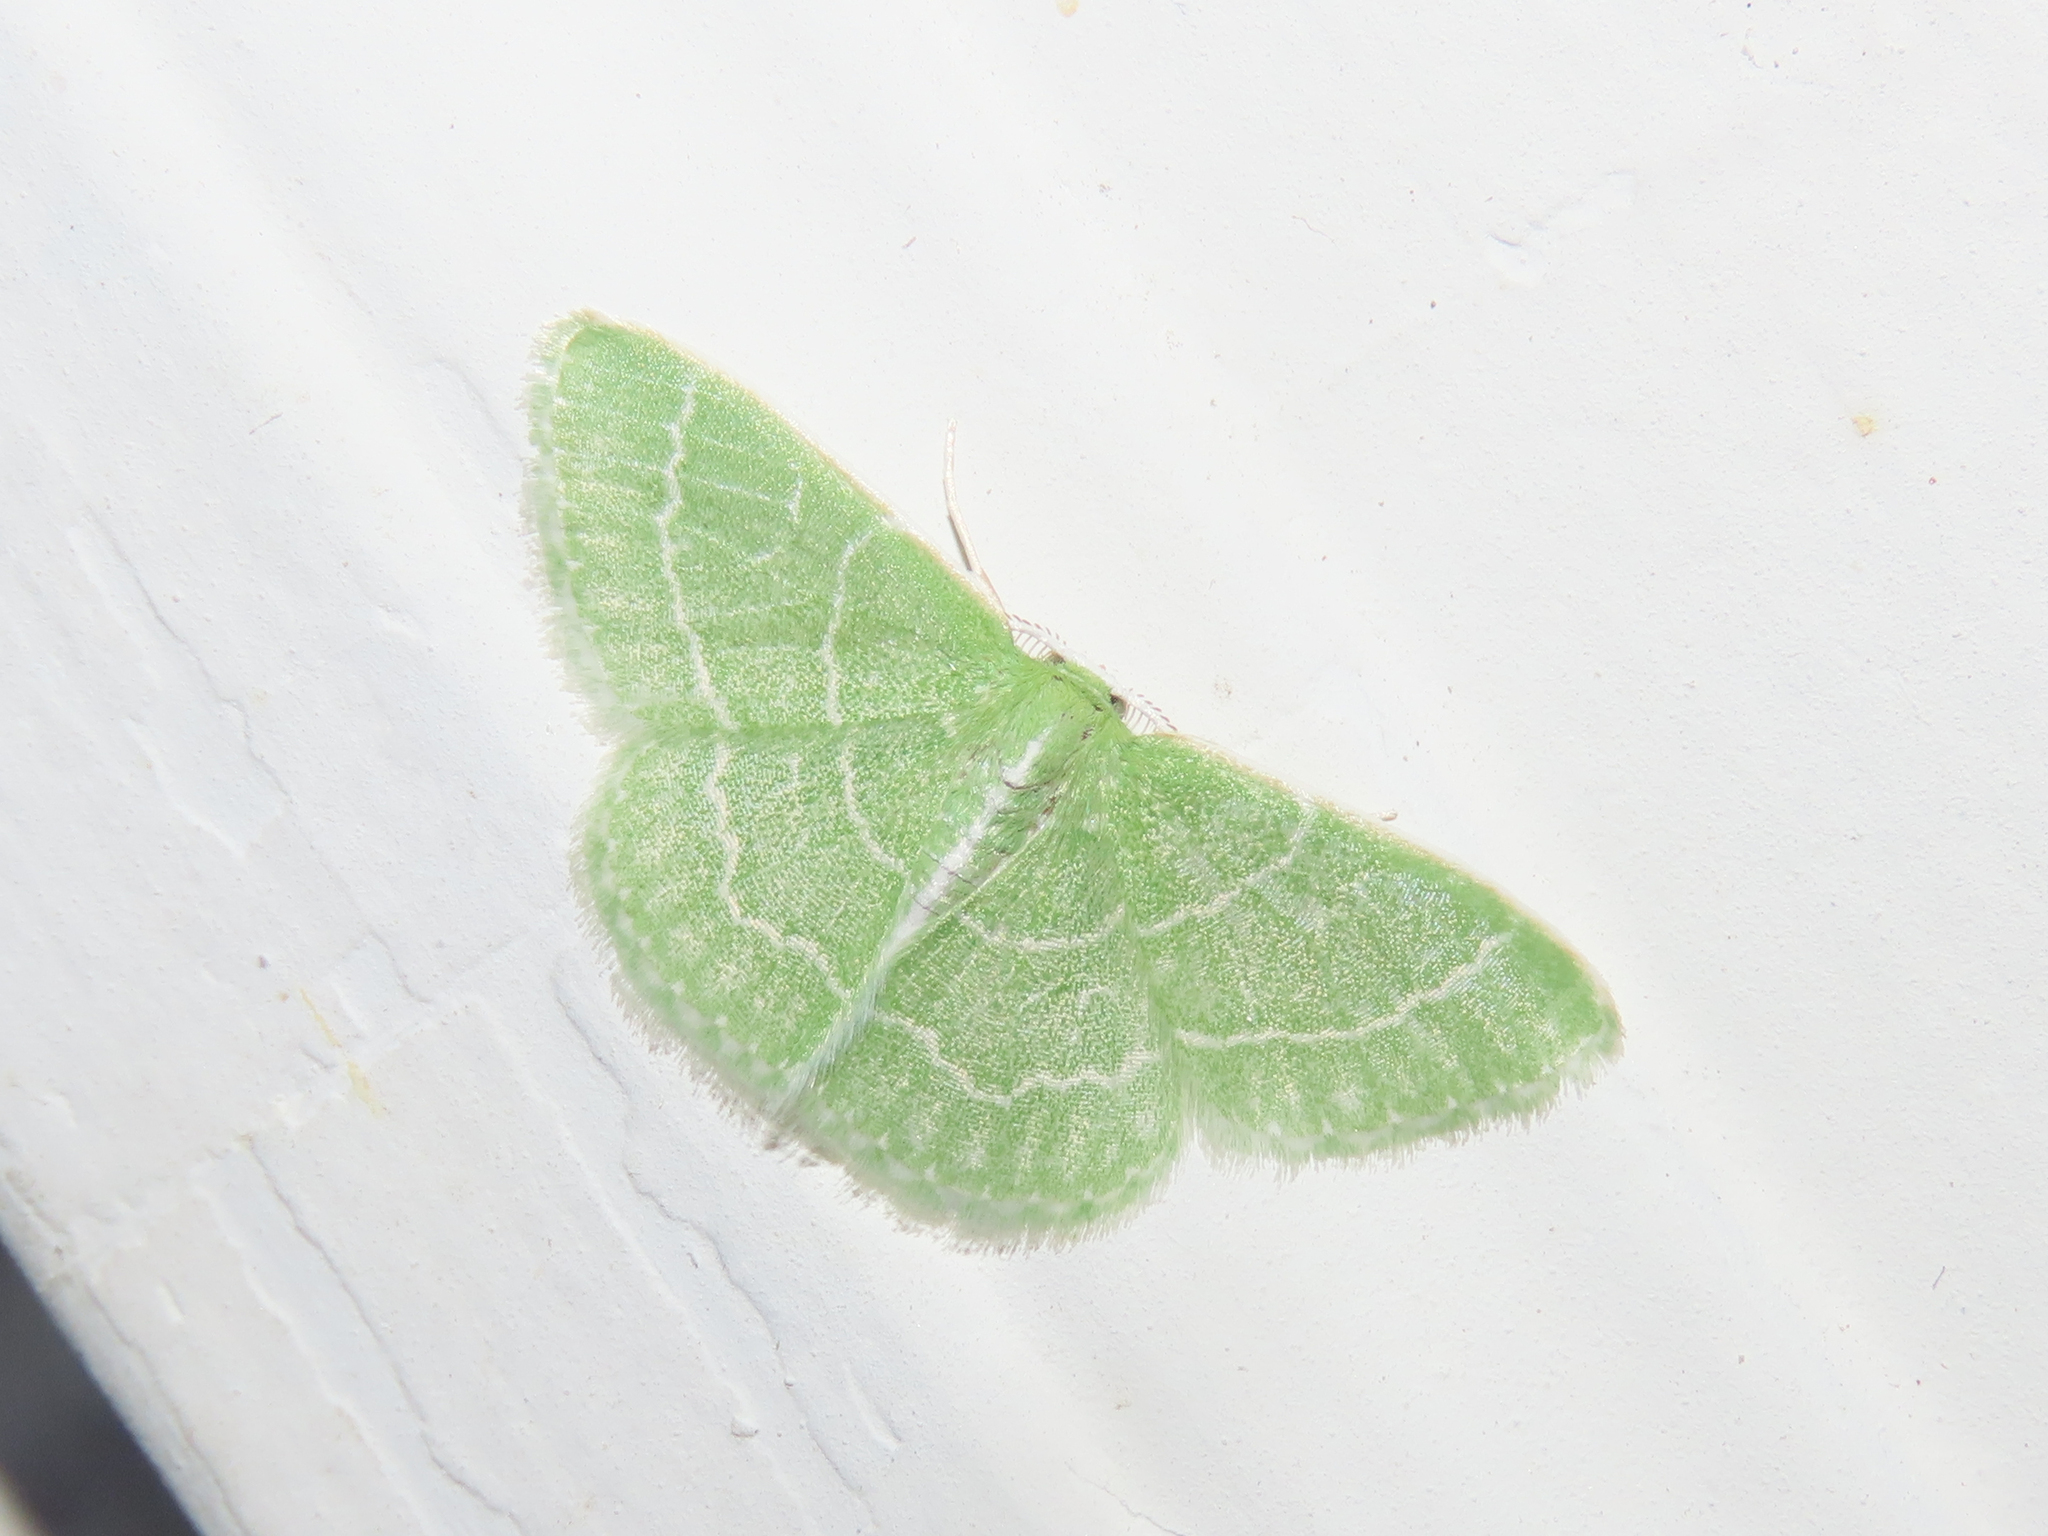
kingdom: Animalia
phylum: Arthropoda
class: Insecta
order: Lepidoptera
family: Geometridae
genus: Synchlora
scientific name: Synchlora aerata
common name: Wavy-lined emerald
